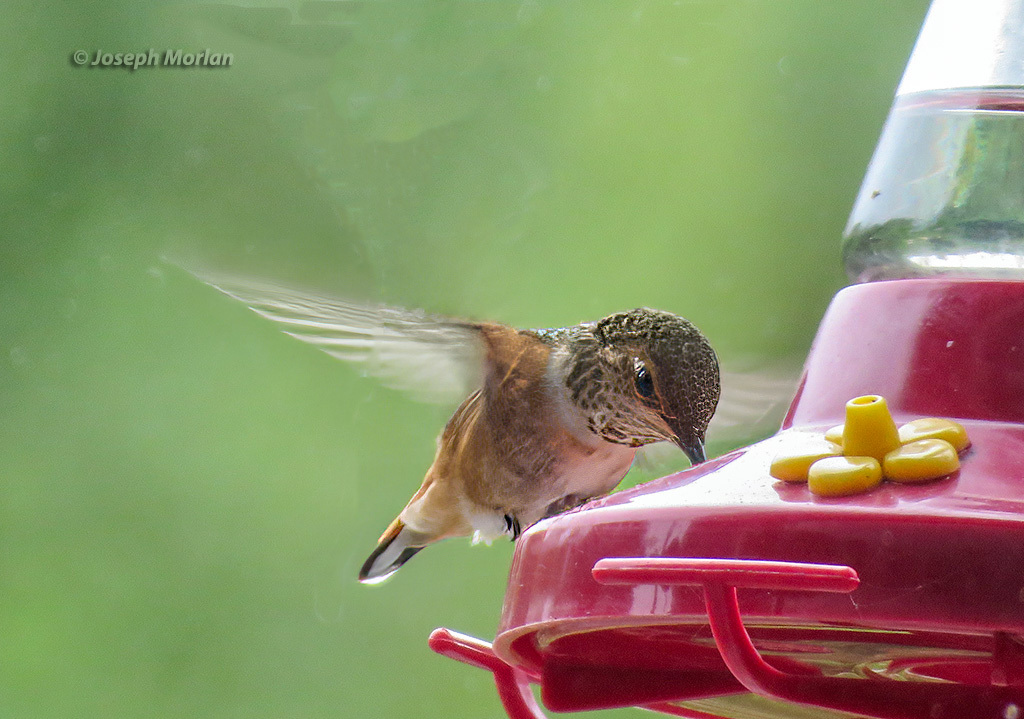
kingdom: Animalia
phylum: Chordata
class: Aves
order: Apodiformes
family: Trochilidae
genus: Selasphorus
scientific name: Selasphorus sasin
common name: Allen's hummingbird
